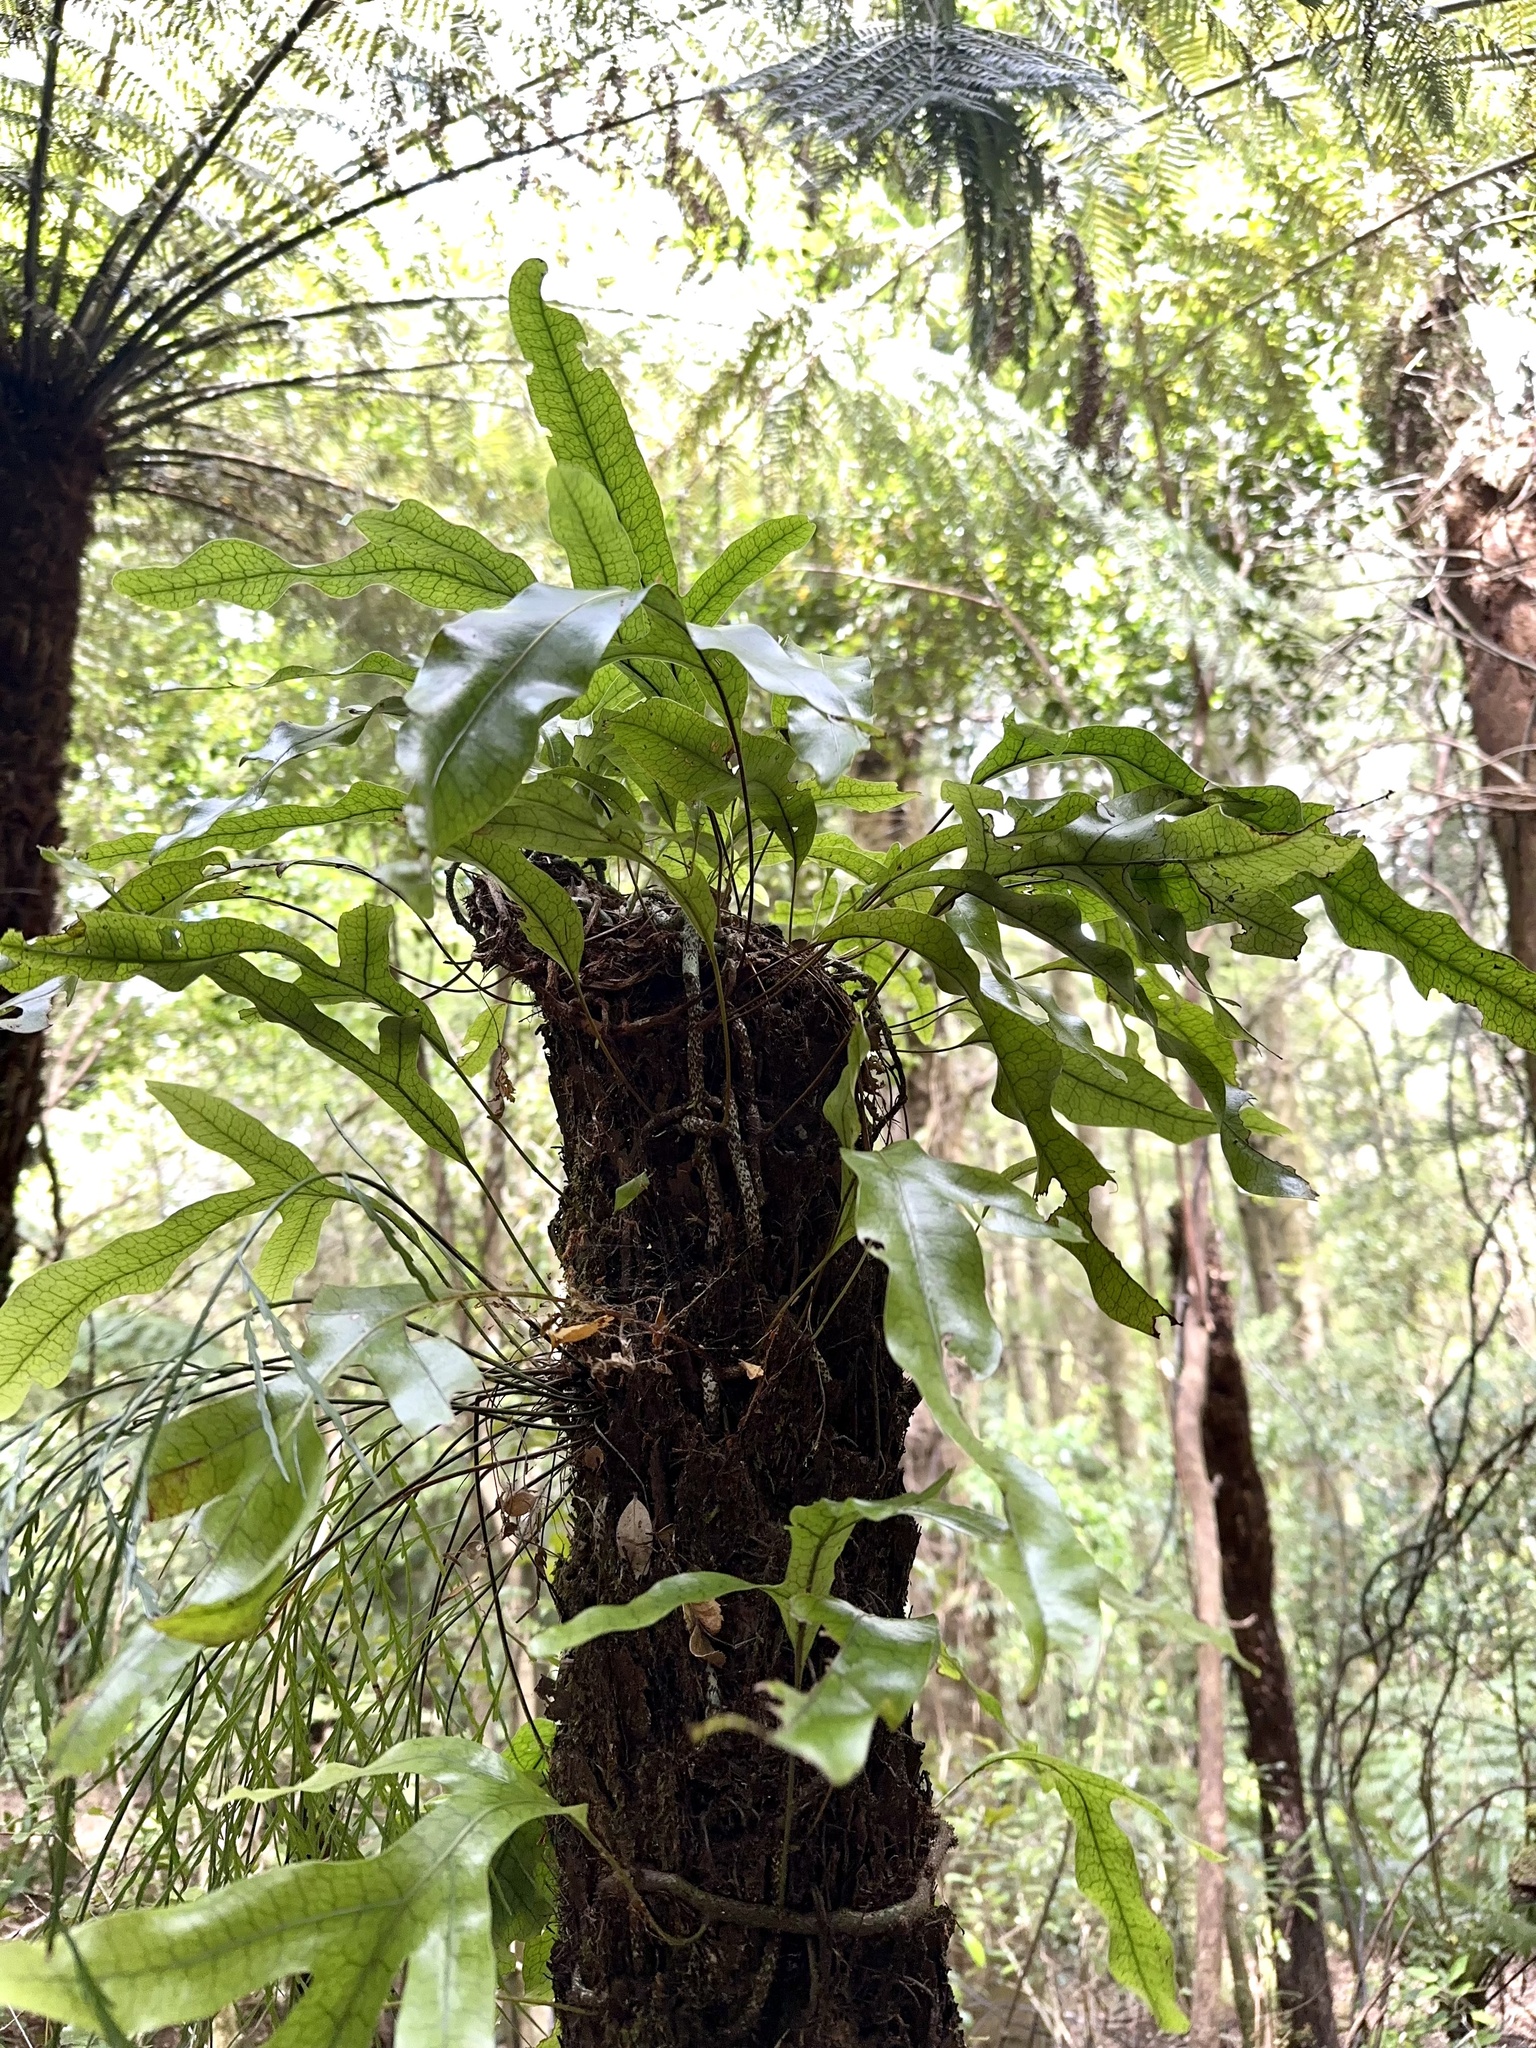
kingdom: Plantae
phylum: Tracheophyta
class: Polypodiopsida
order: Polypodiales
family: Polypodiaceae
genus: Lecanopteris
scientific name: Lecanopteris pustulata
